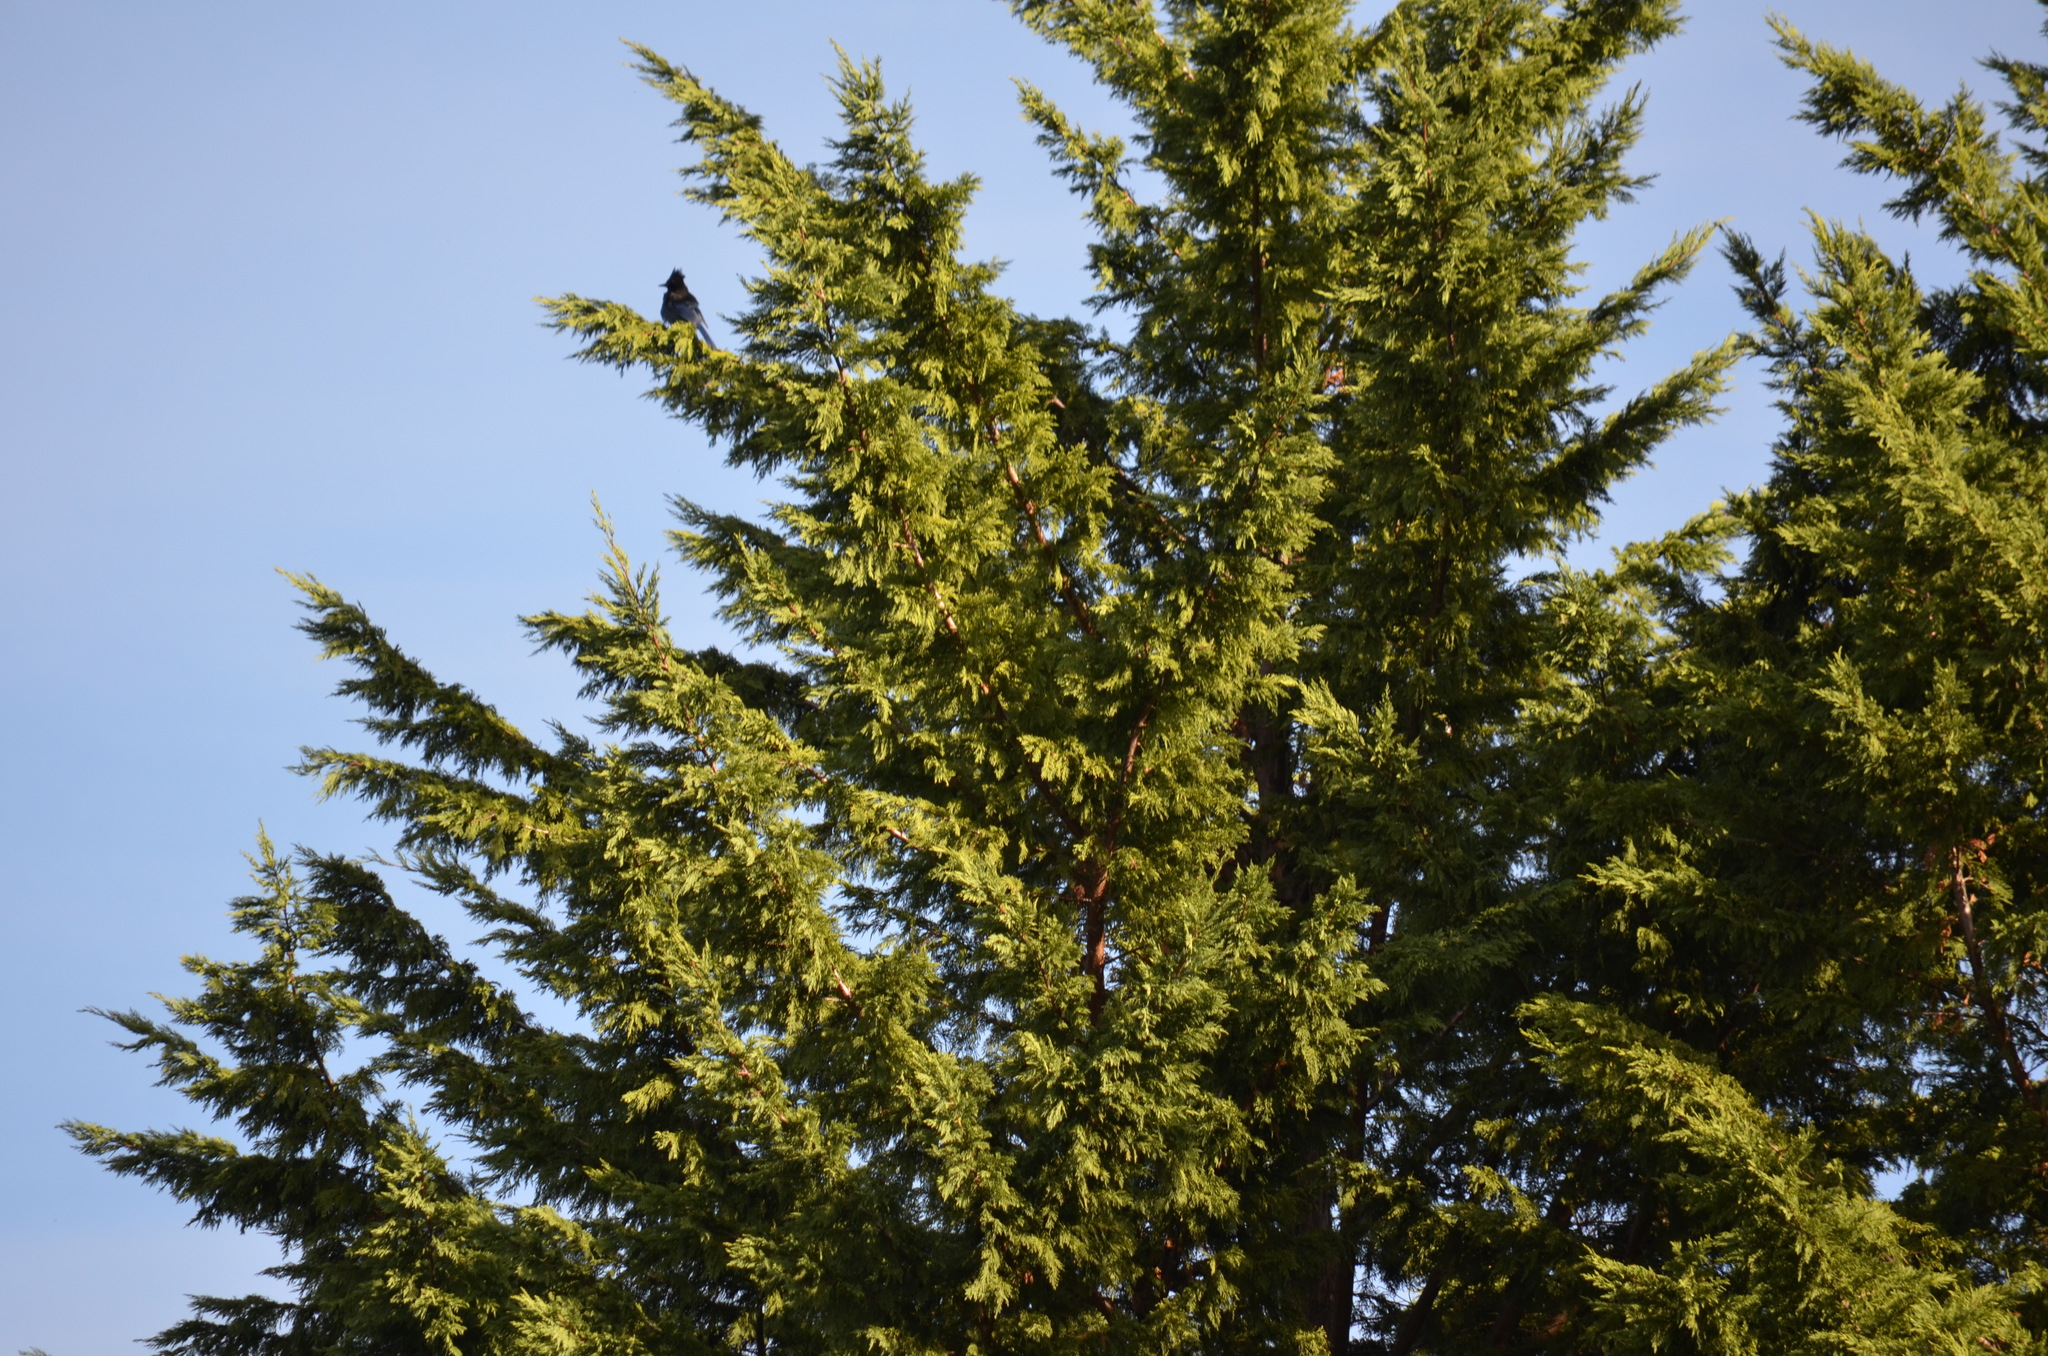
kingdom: Animalia
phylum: Chordata
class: Aves
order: Passeriformes
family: Corvidae
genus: Cyanocitta
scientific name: Cyanocitta stelleri
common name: Steller's jay
